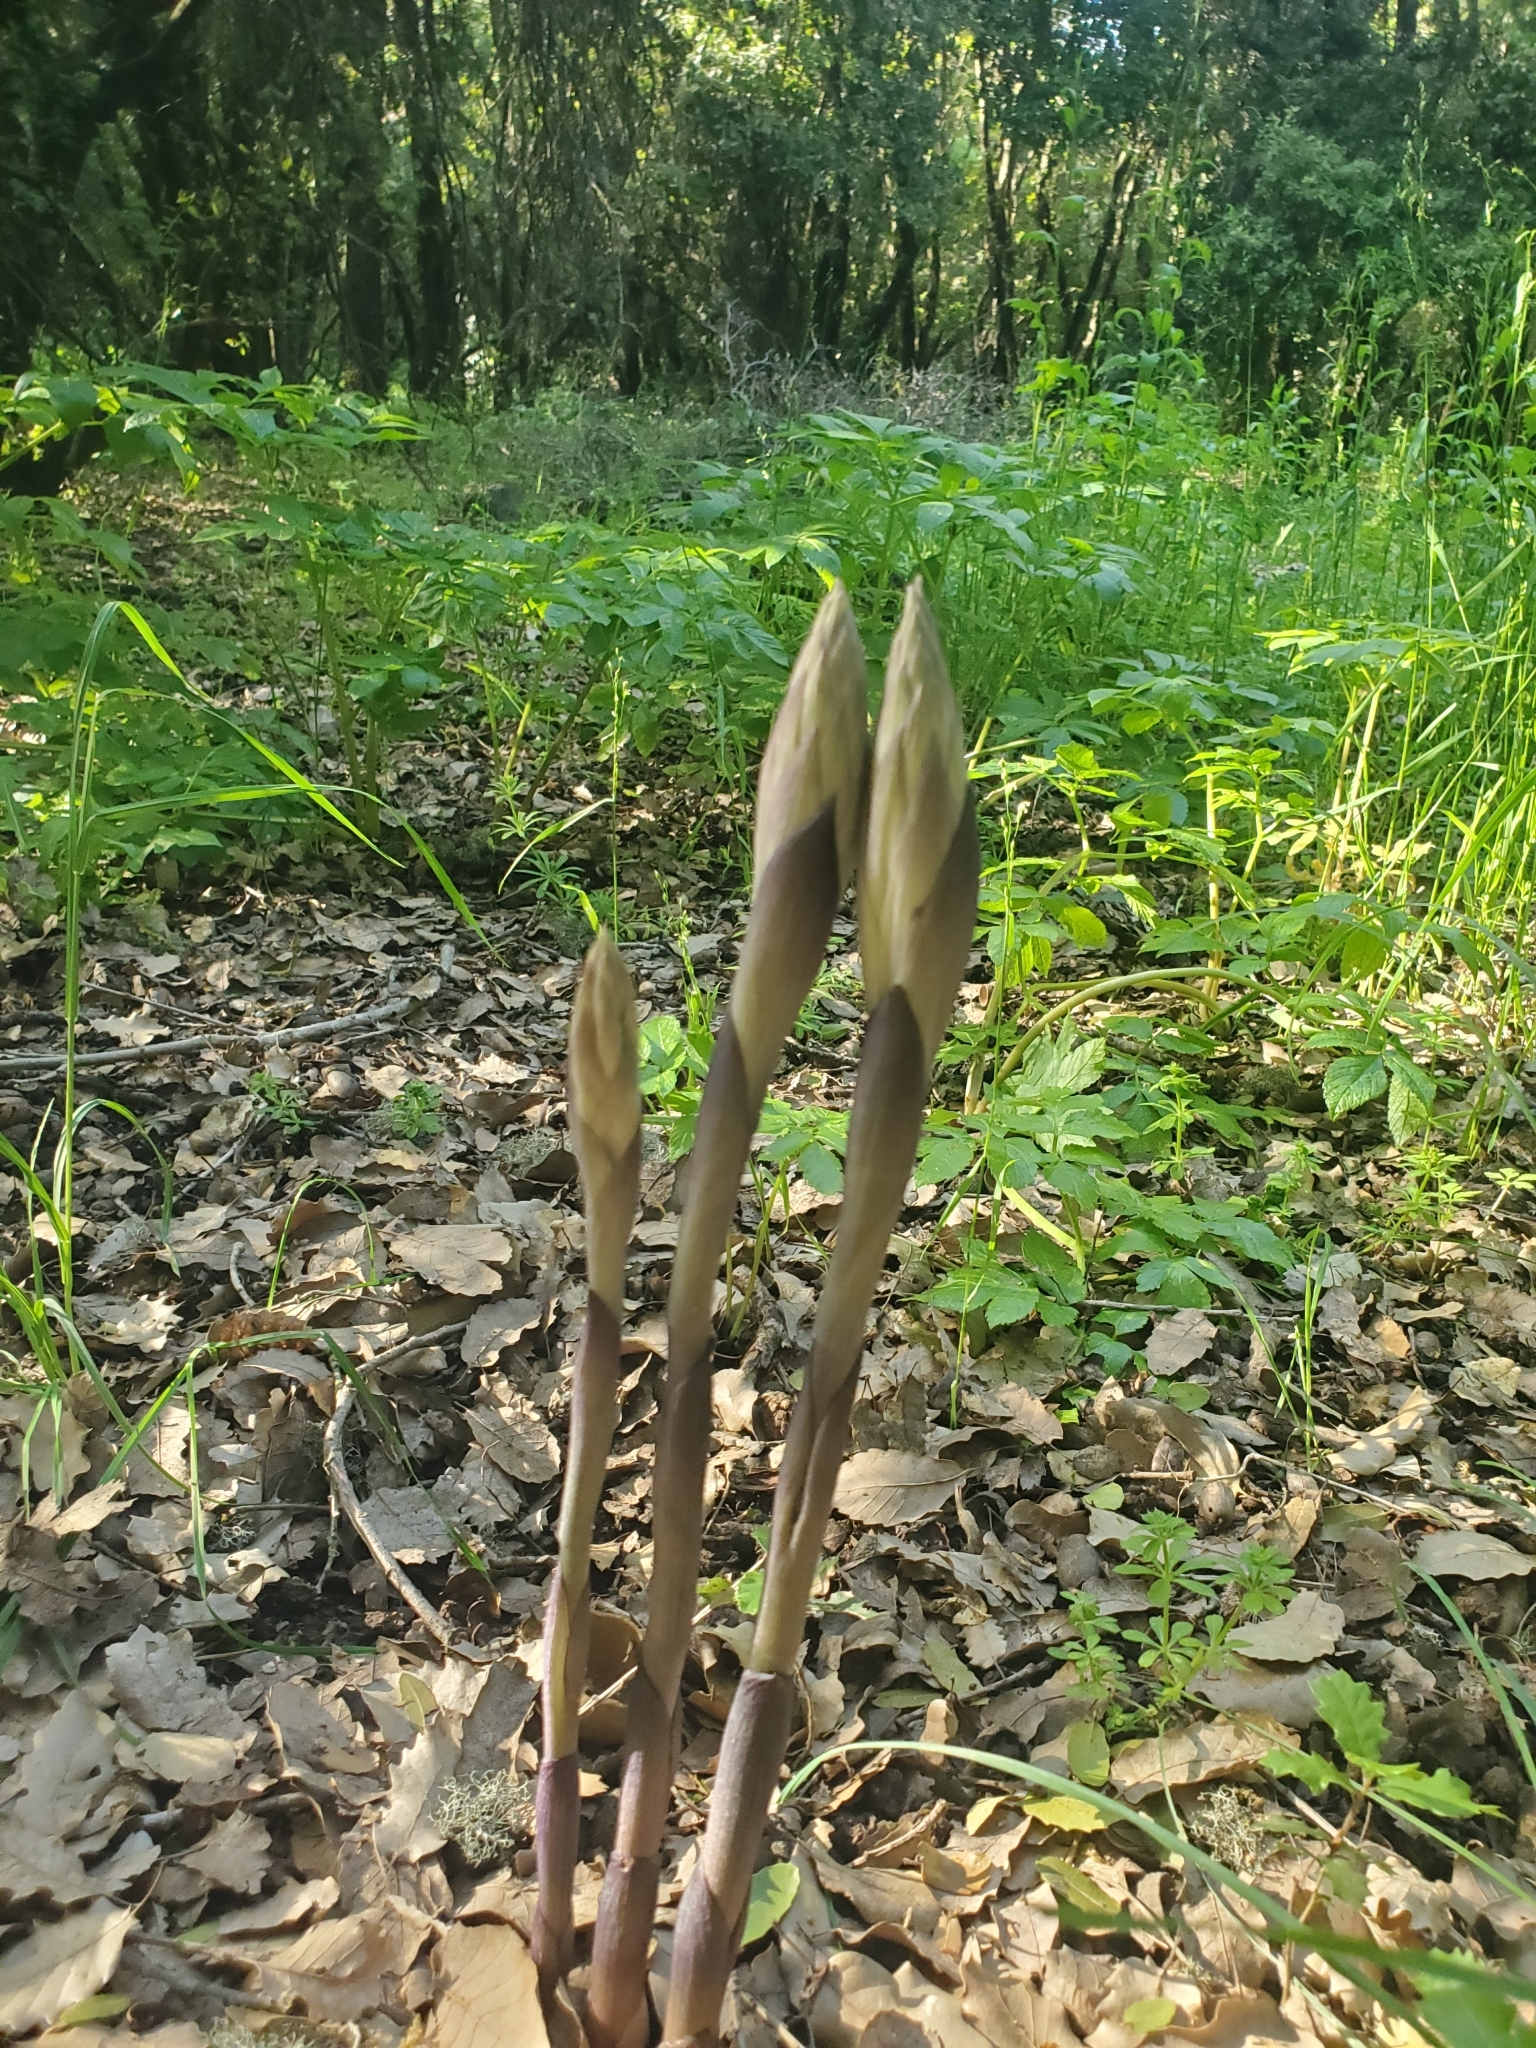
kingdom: Plantae
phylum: Tracheophyta
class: Liliopsida
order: Asparagales
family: Orchidaceae
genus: Limodorum
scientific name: Limodorum abortivum
